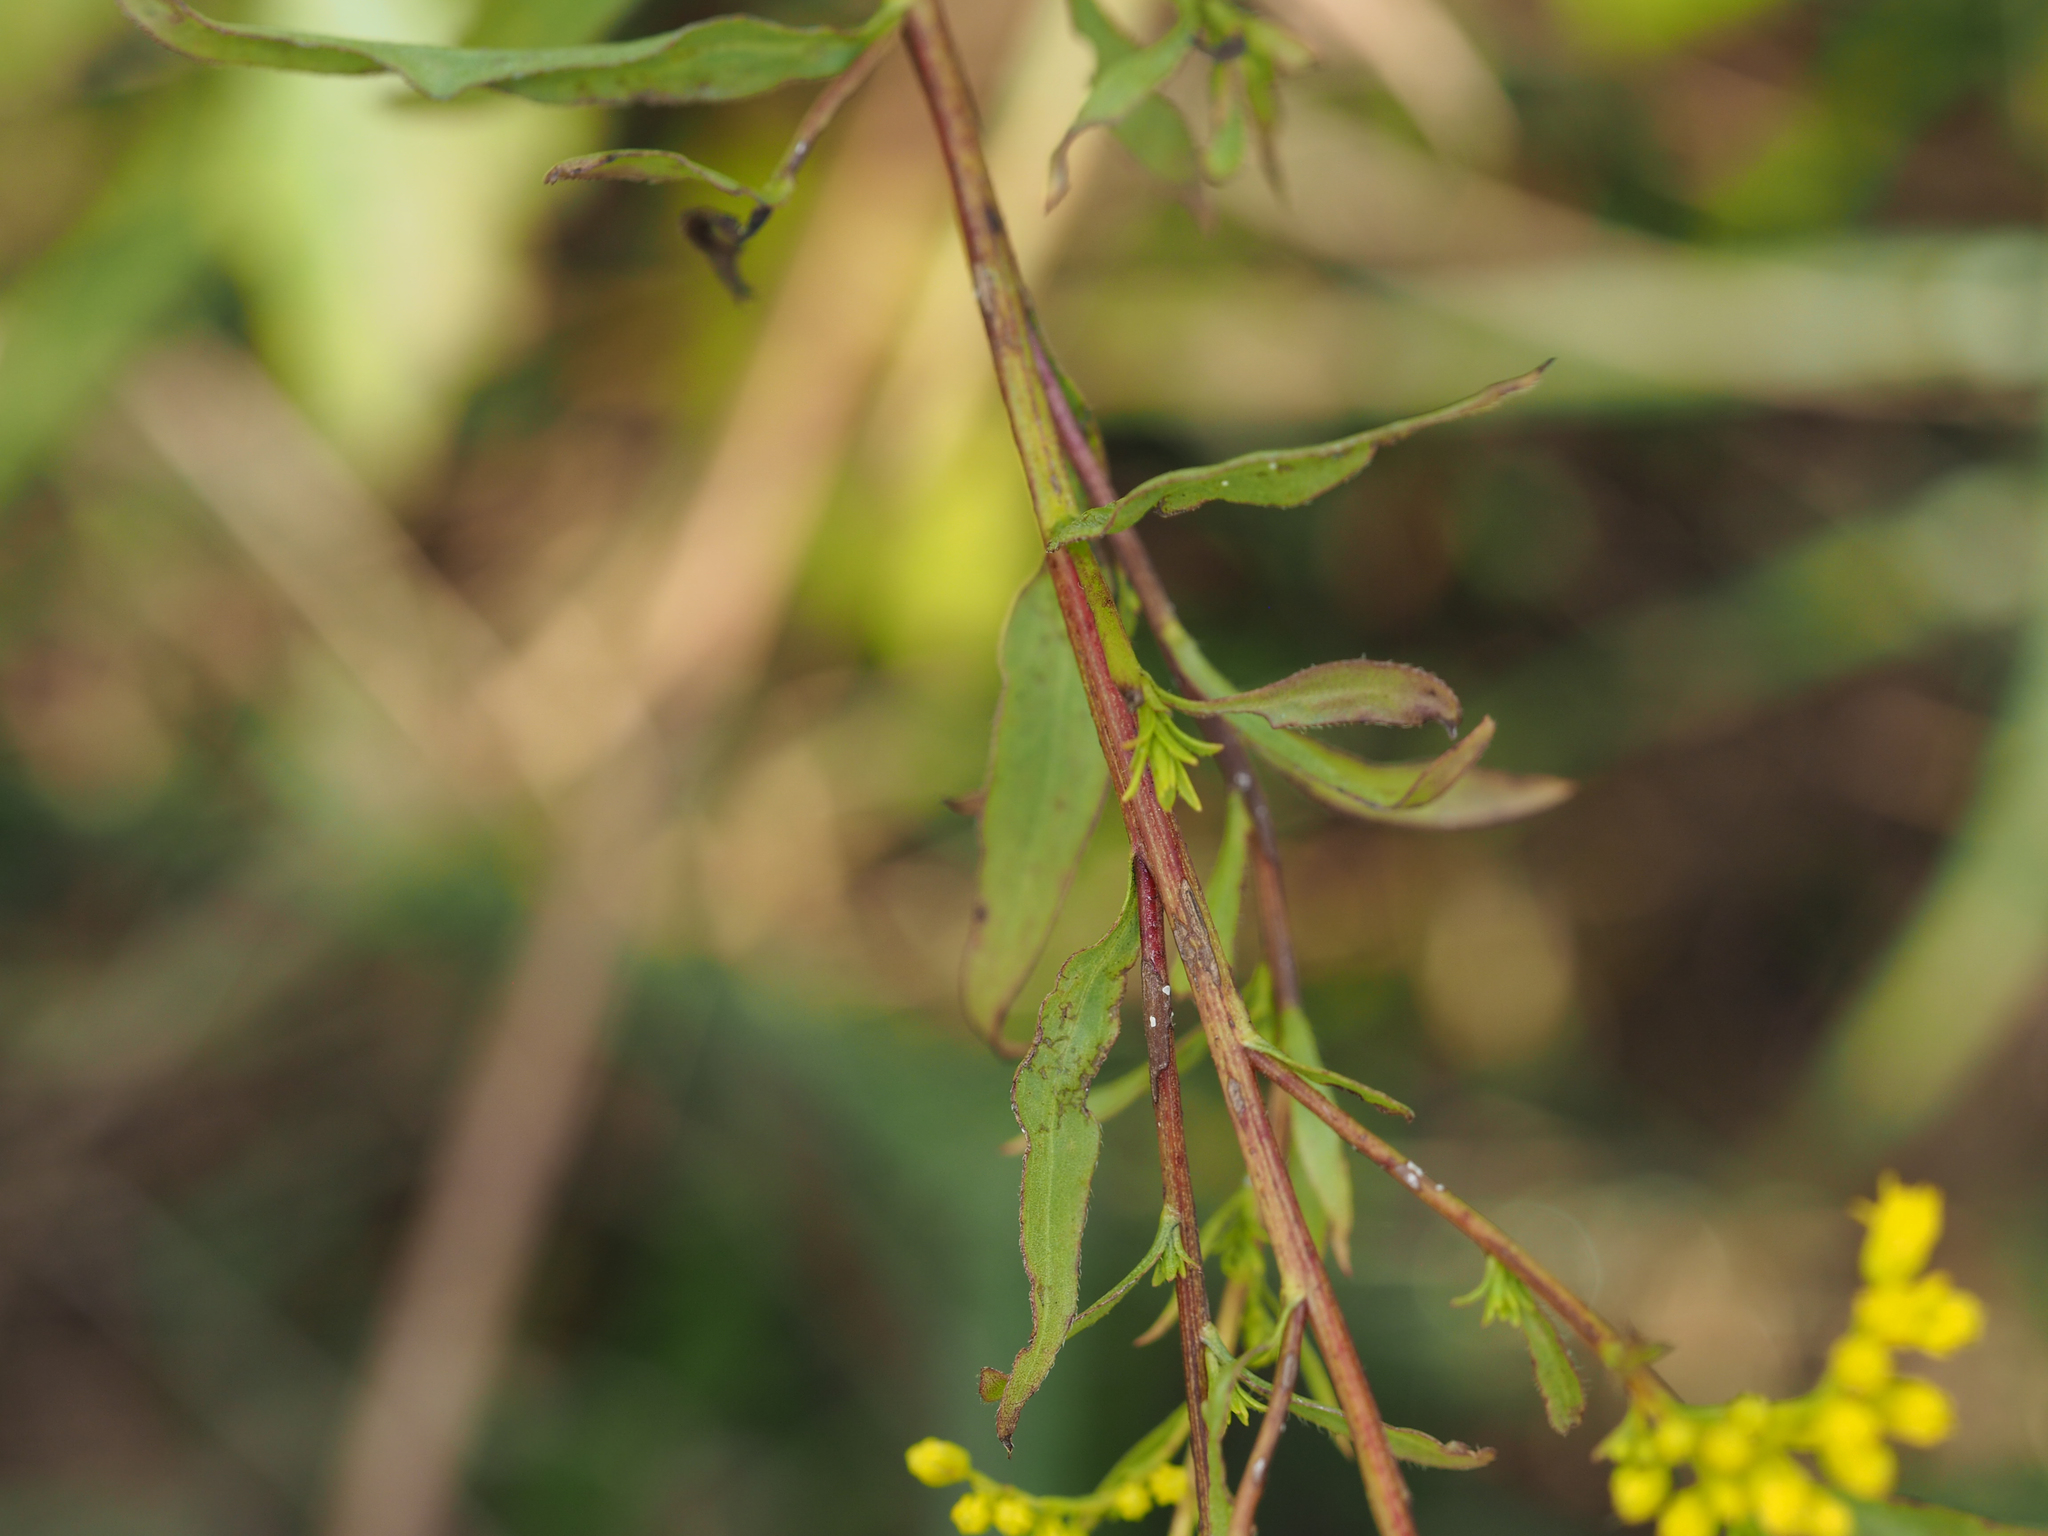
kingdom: Plantae
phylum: Tracheophyta
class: Magnoliopsida
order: Asterales
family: Asteraceae
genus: Solidago
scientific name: Solidago juncea
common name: Early goldenrod
